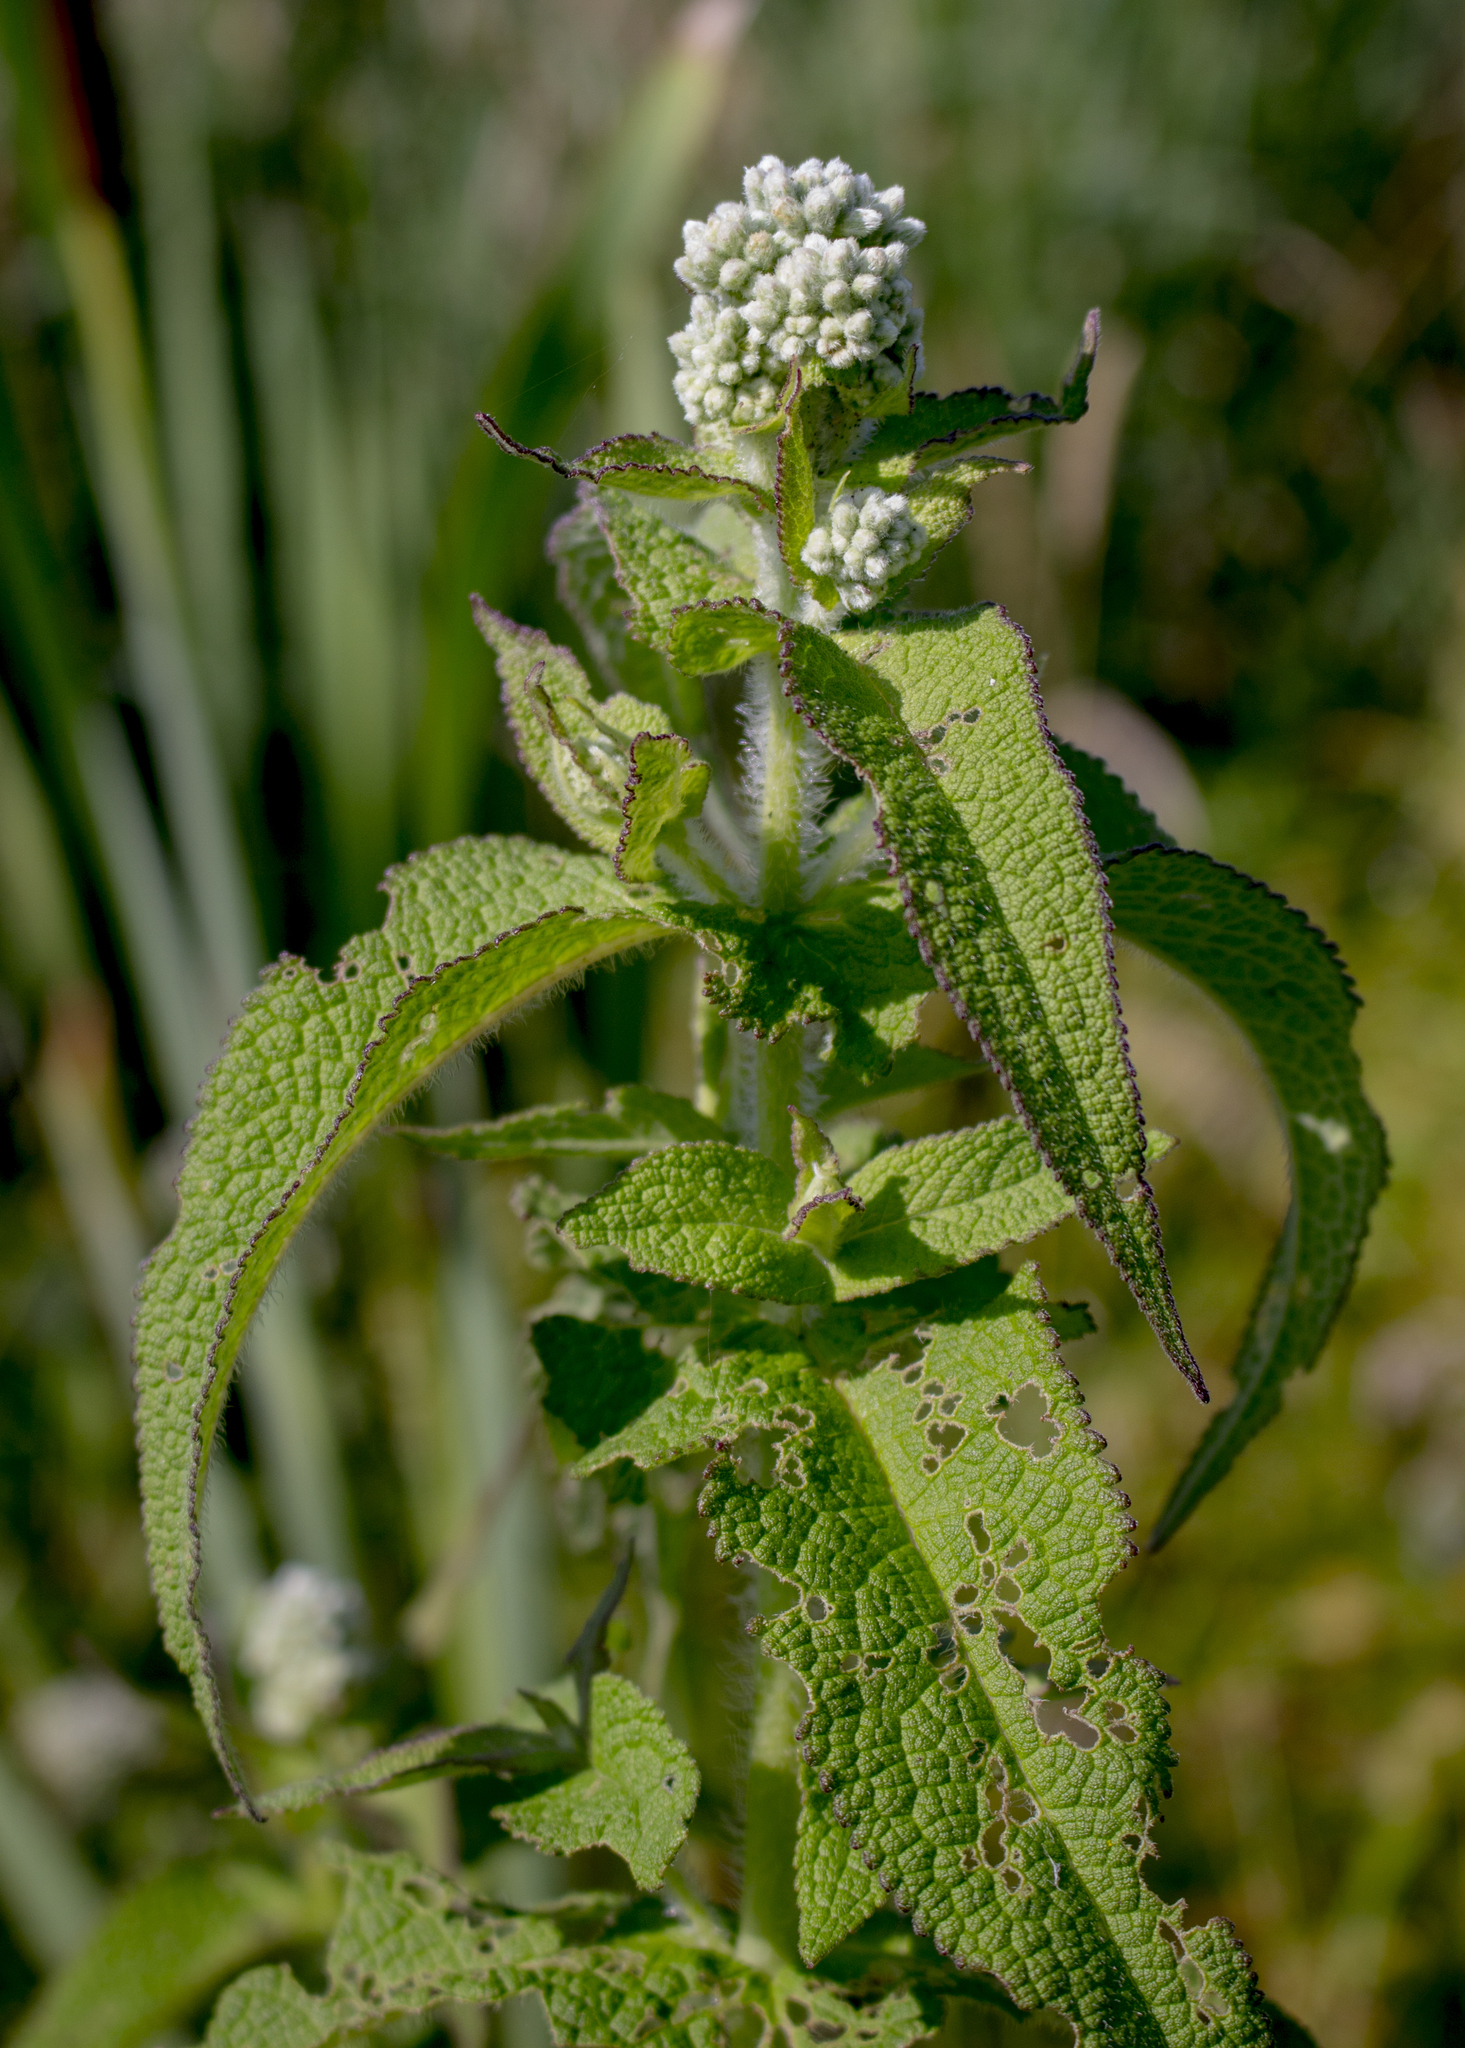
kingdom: Plantae
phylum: Tracheophyta
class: Magnoliopsida
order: Asterales
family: Asteraceae
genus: Eupatorium
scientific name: Eupatorium perfoliatum
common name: Boneset
